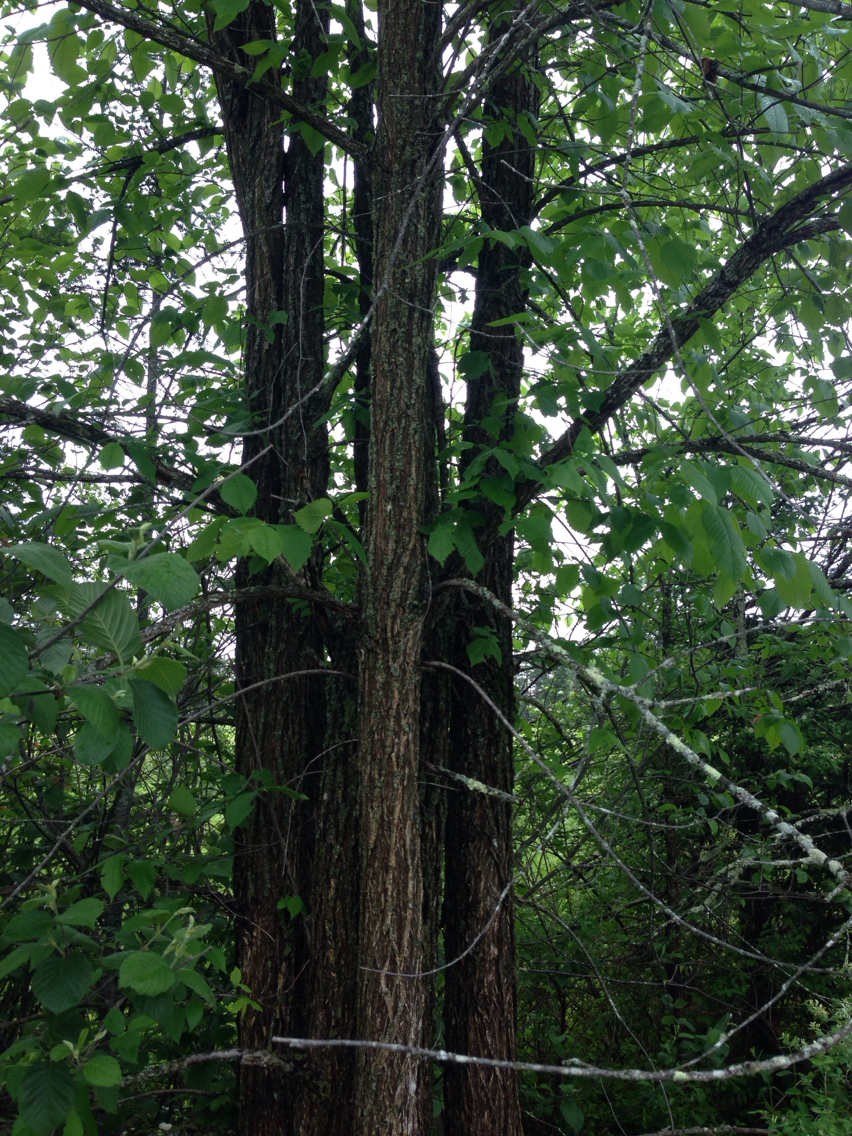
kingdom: Plantae
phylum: Tracheophyta
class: Magnoliopsida
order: Rosales
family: Ulmaceae
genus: Ulmus
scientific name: Ulmus americana
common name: American elm
